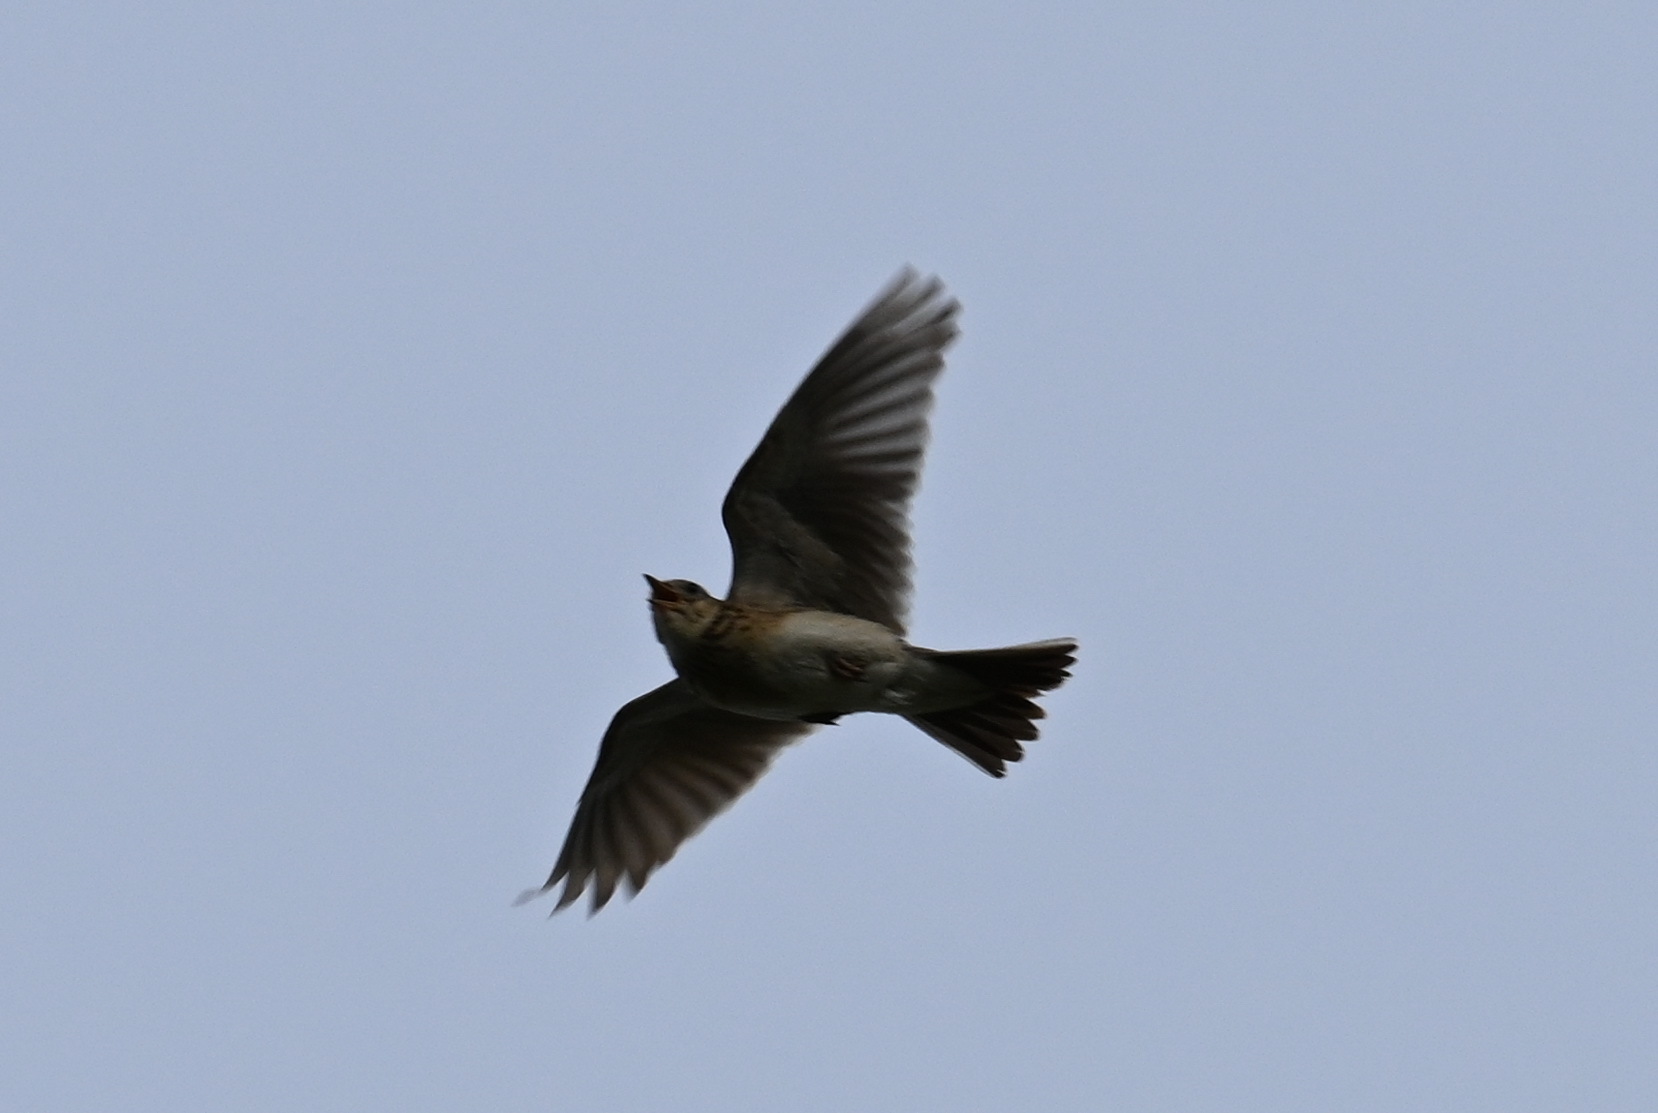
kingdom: Animalia
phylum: Chordata
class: Aves
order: Passeriformes
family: Alaudidae
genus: Alauda
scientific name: Alauda arvensis
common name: Eurasian skylark
